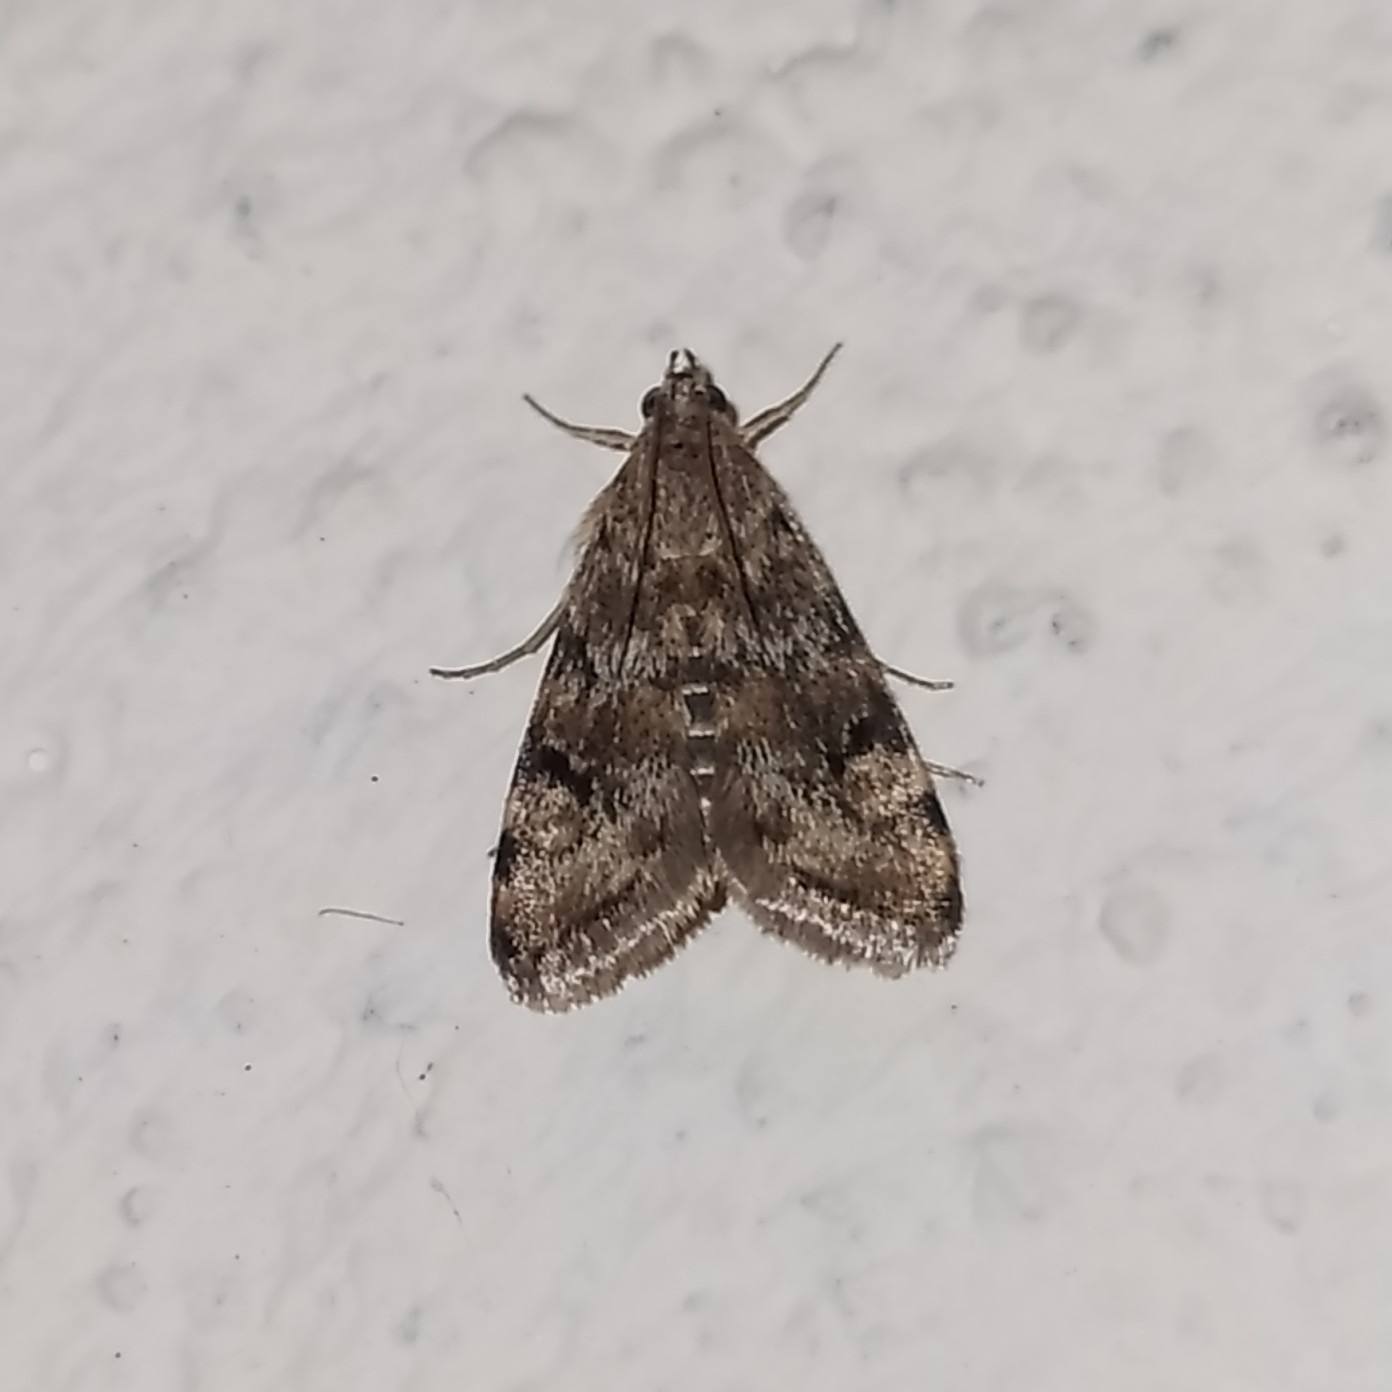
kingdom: Animalia
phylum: Arthropoda
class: Insecta
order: Lepidoptera
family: Crambidae
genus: Noctuelia
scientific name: Noctuelia Aporodes floralis
